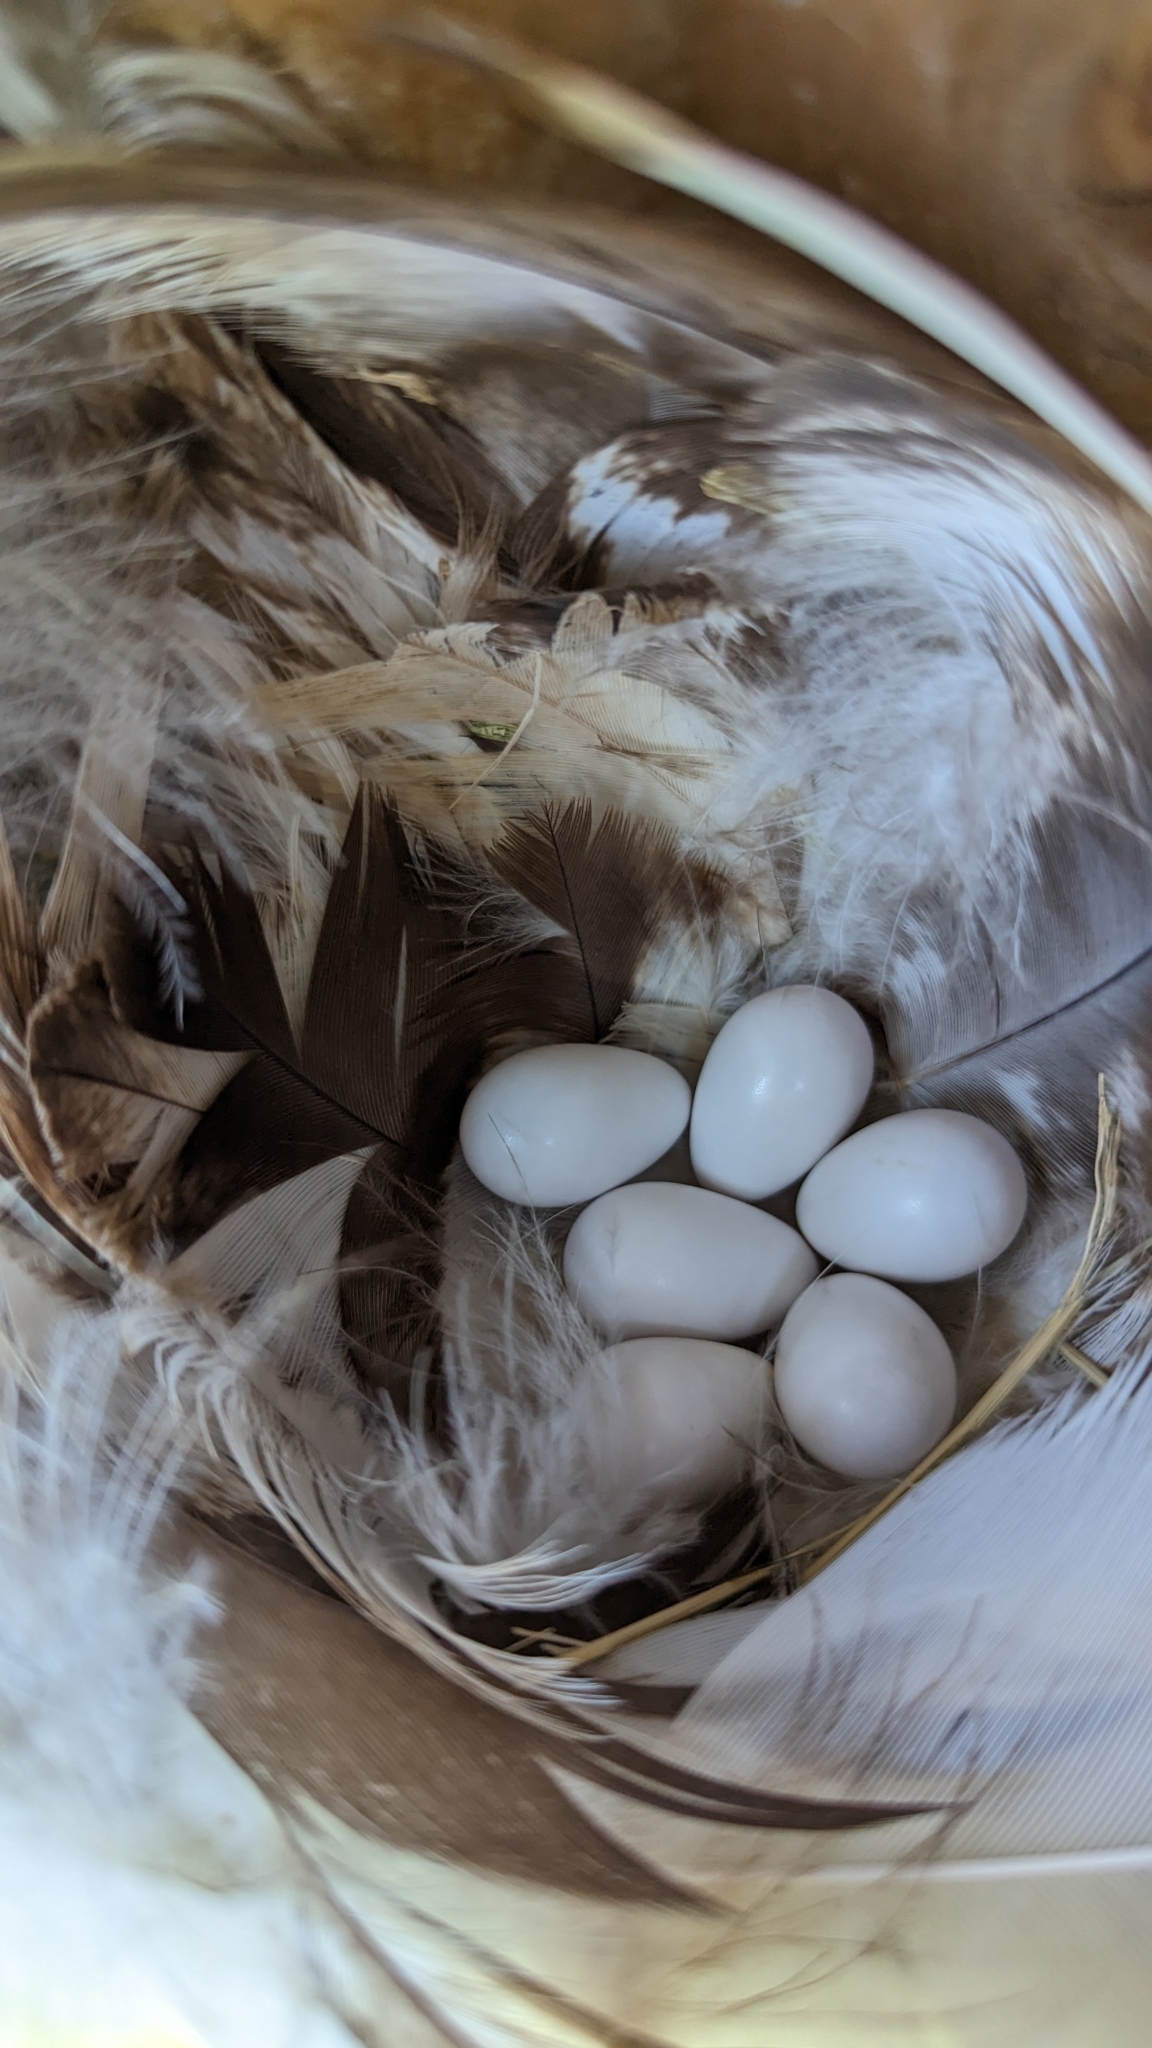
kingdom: Animalia
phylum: Chordata
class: Aves
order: Passeriformes
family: Hirundinidae
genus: Tachycineta
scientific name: Tachycineta bicolor
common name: Tree swallow
